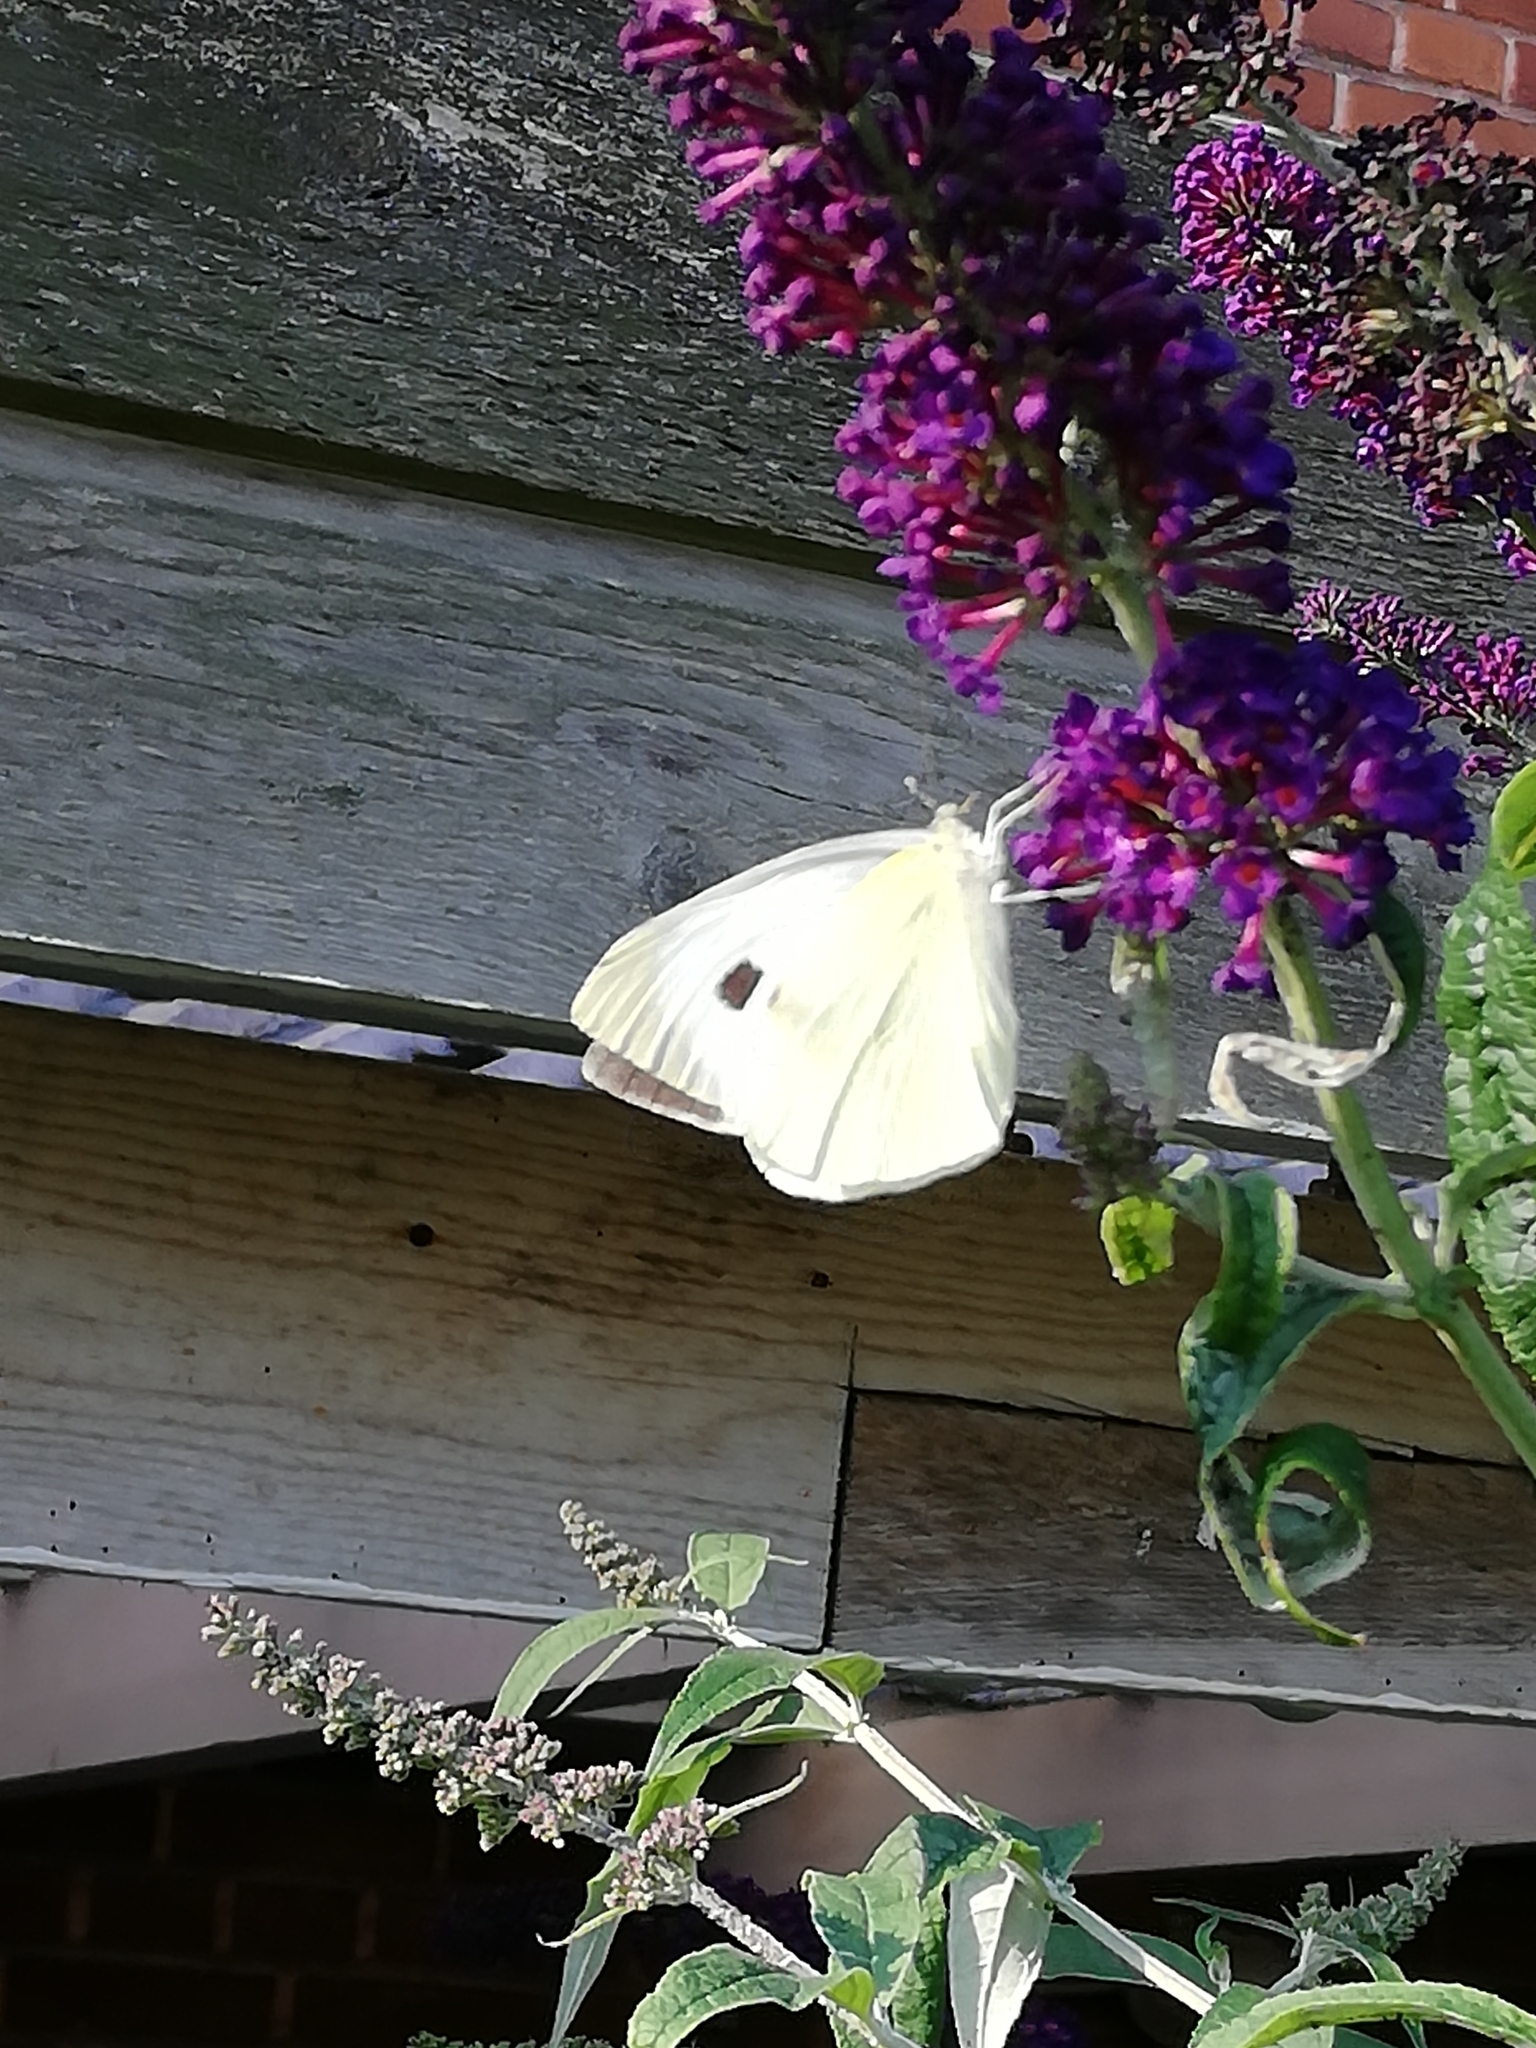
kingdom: Animalia
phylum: Arthropoda
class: Insecta
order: Lepidoptera
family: Pieridae
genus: Pieris
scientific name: Pieris brassicae
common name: Large white
